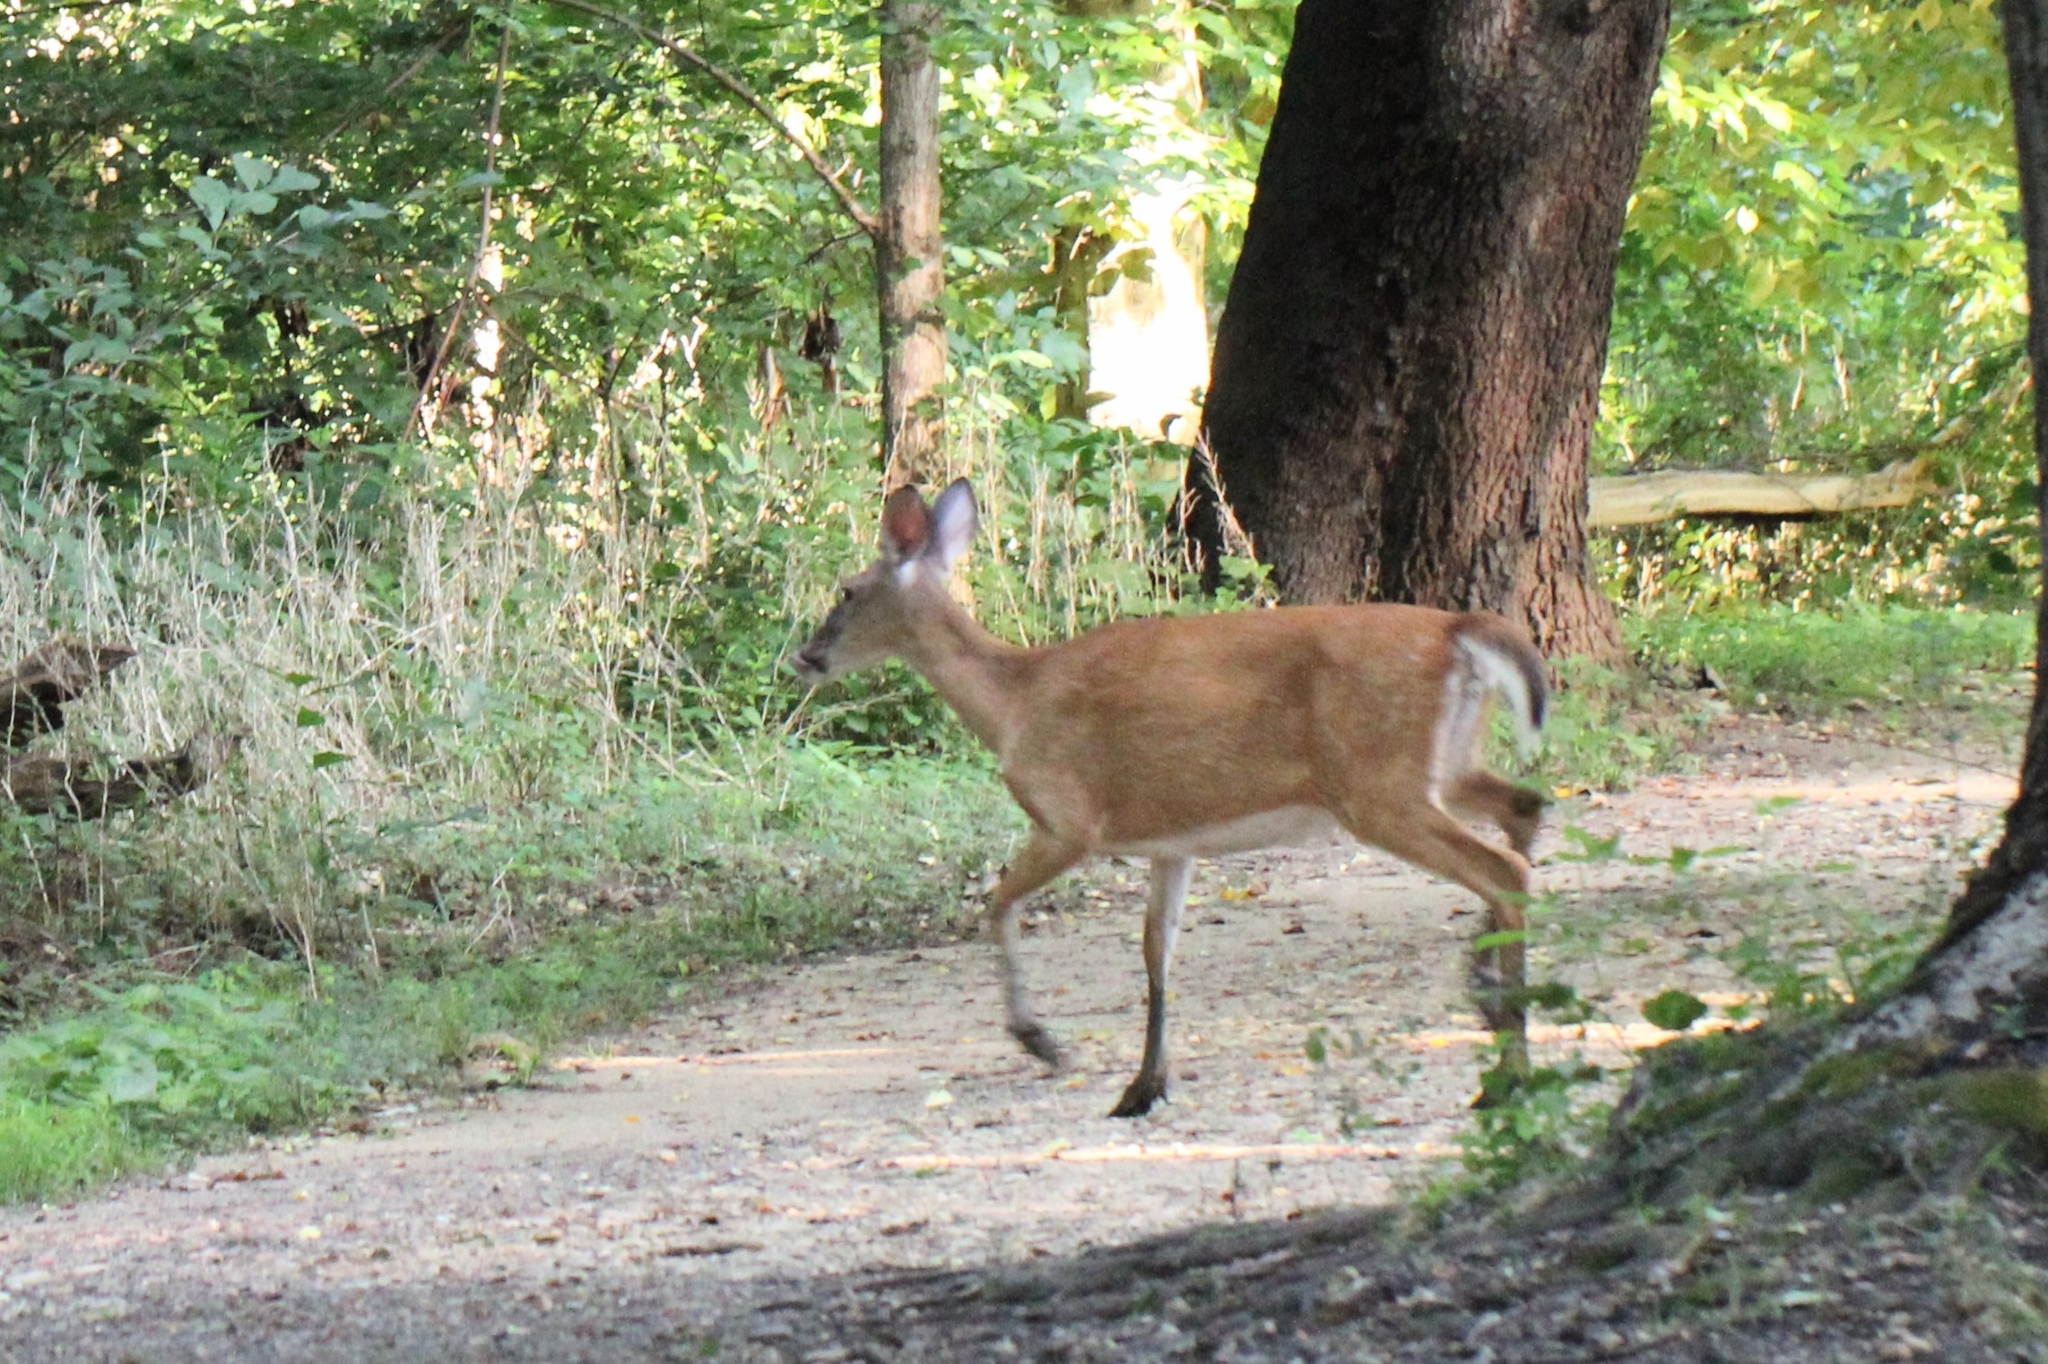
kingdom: Animalia
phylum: Chordata
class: Mammalia
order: Artiodactyla
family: Cervidae
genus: Odocoileus
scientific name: Odocoileus virginianus
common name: White-tailed deer
